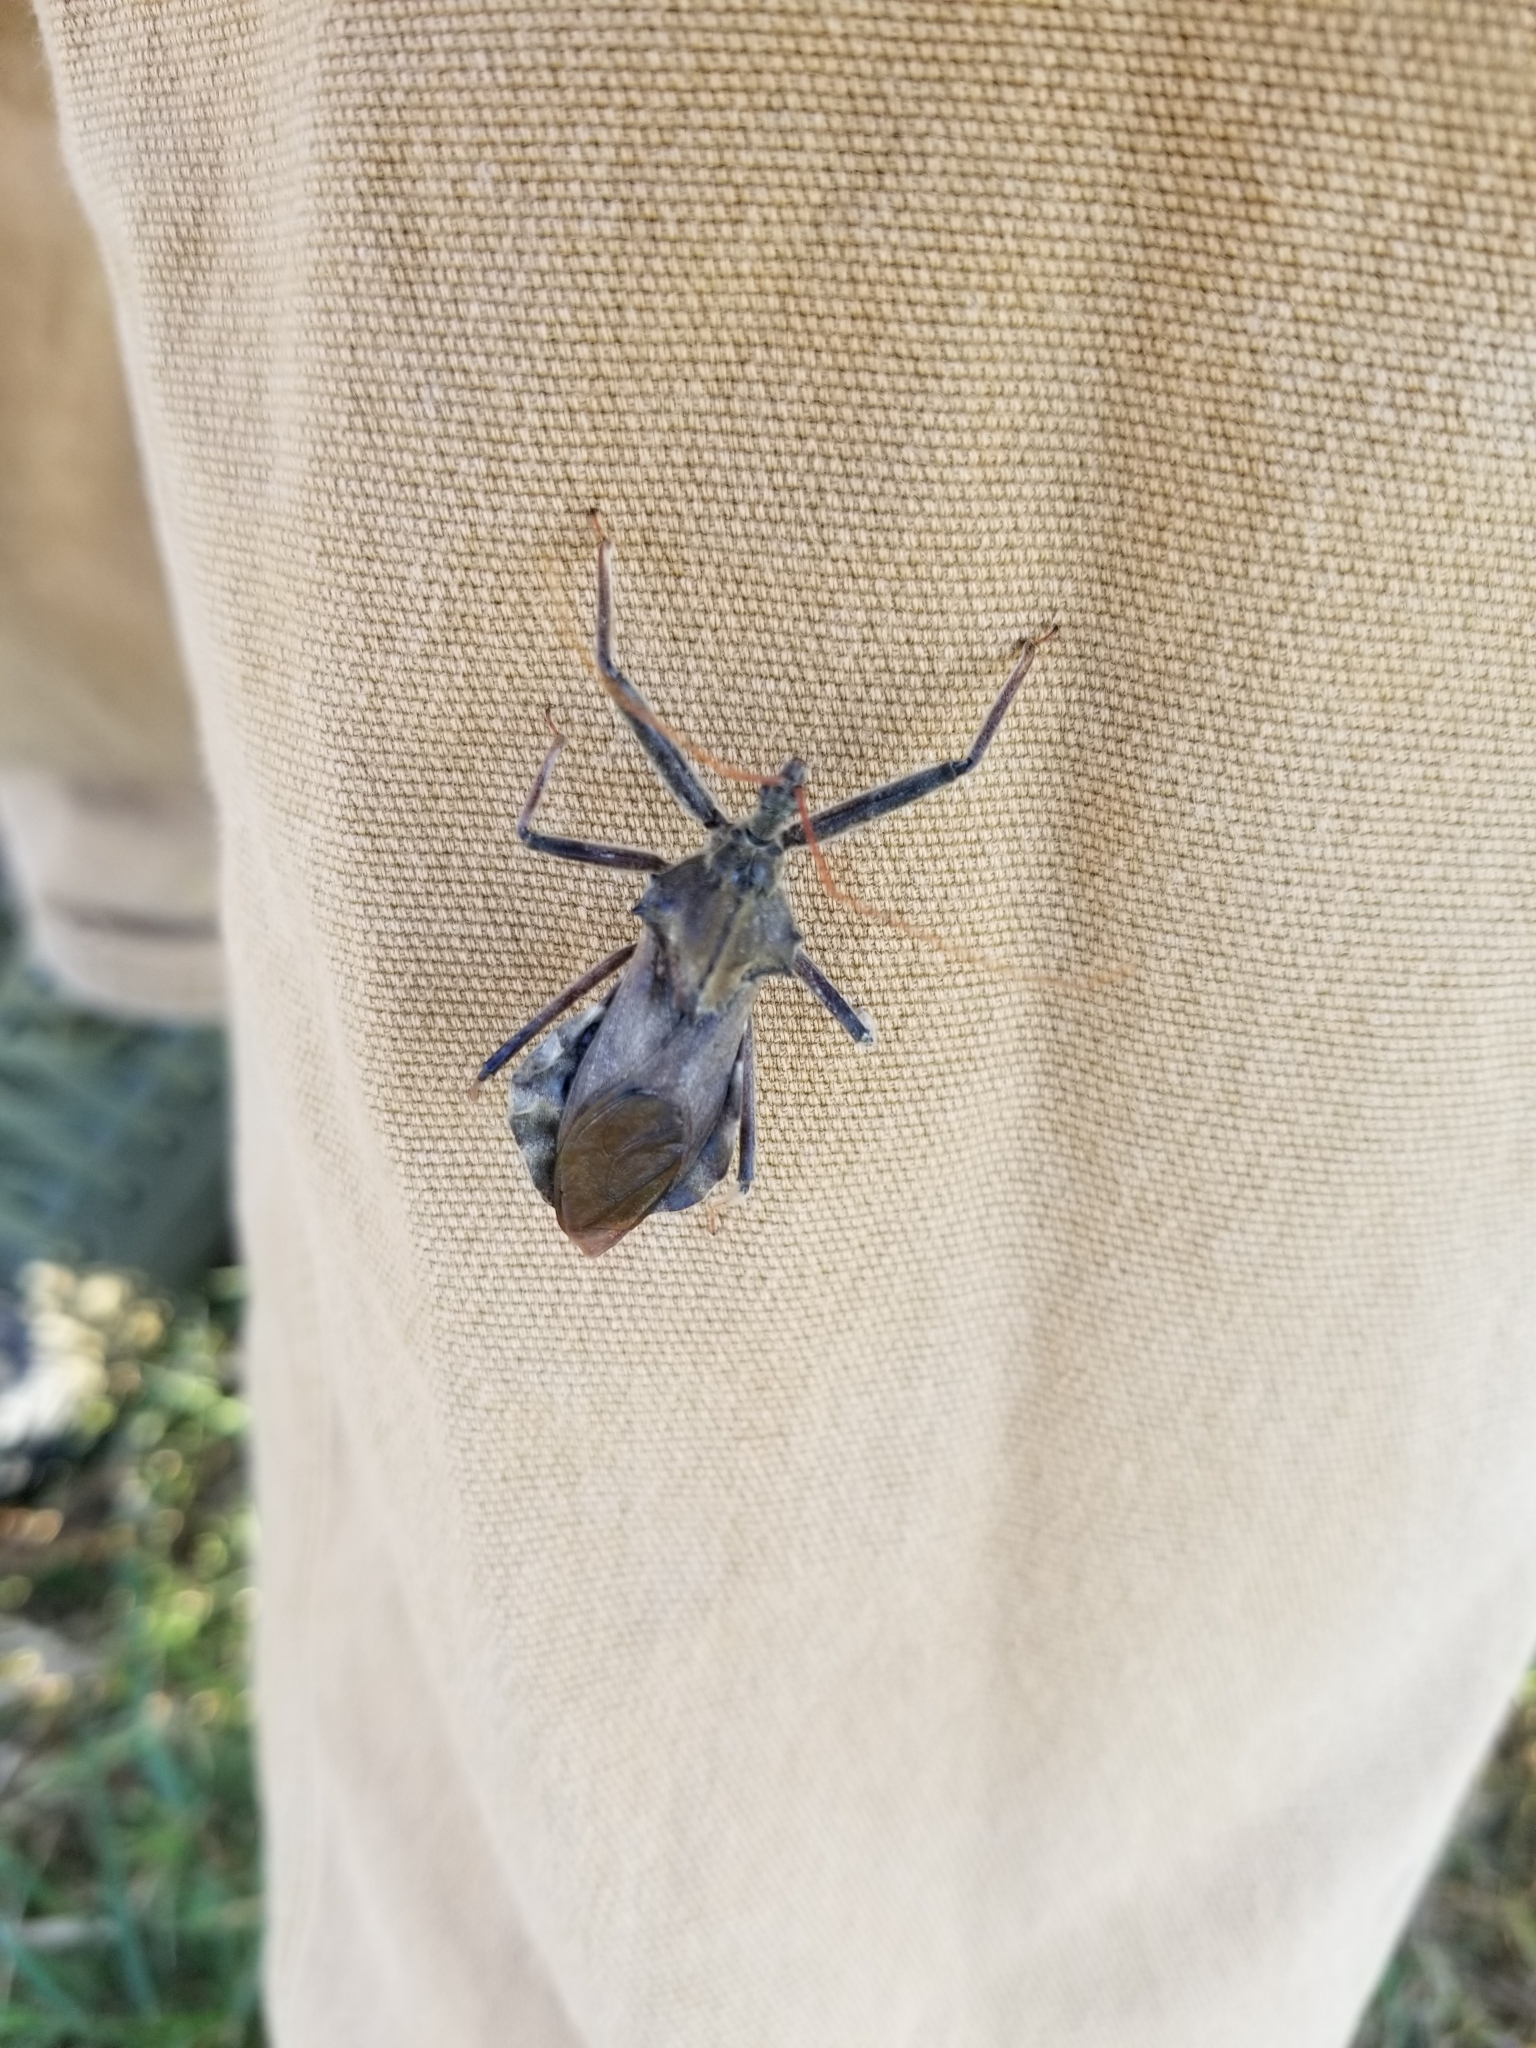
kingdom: Animalia
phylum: Arthropoda
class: Insecta
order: Hemiptera
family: Reduviidae
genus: Arilus
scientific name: Arilus cristatus
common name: North american wheel bug
